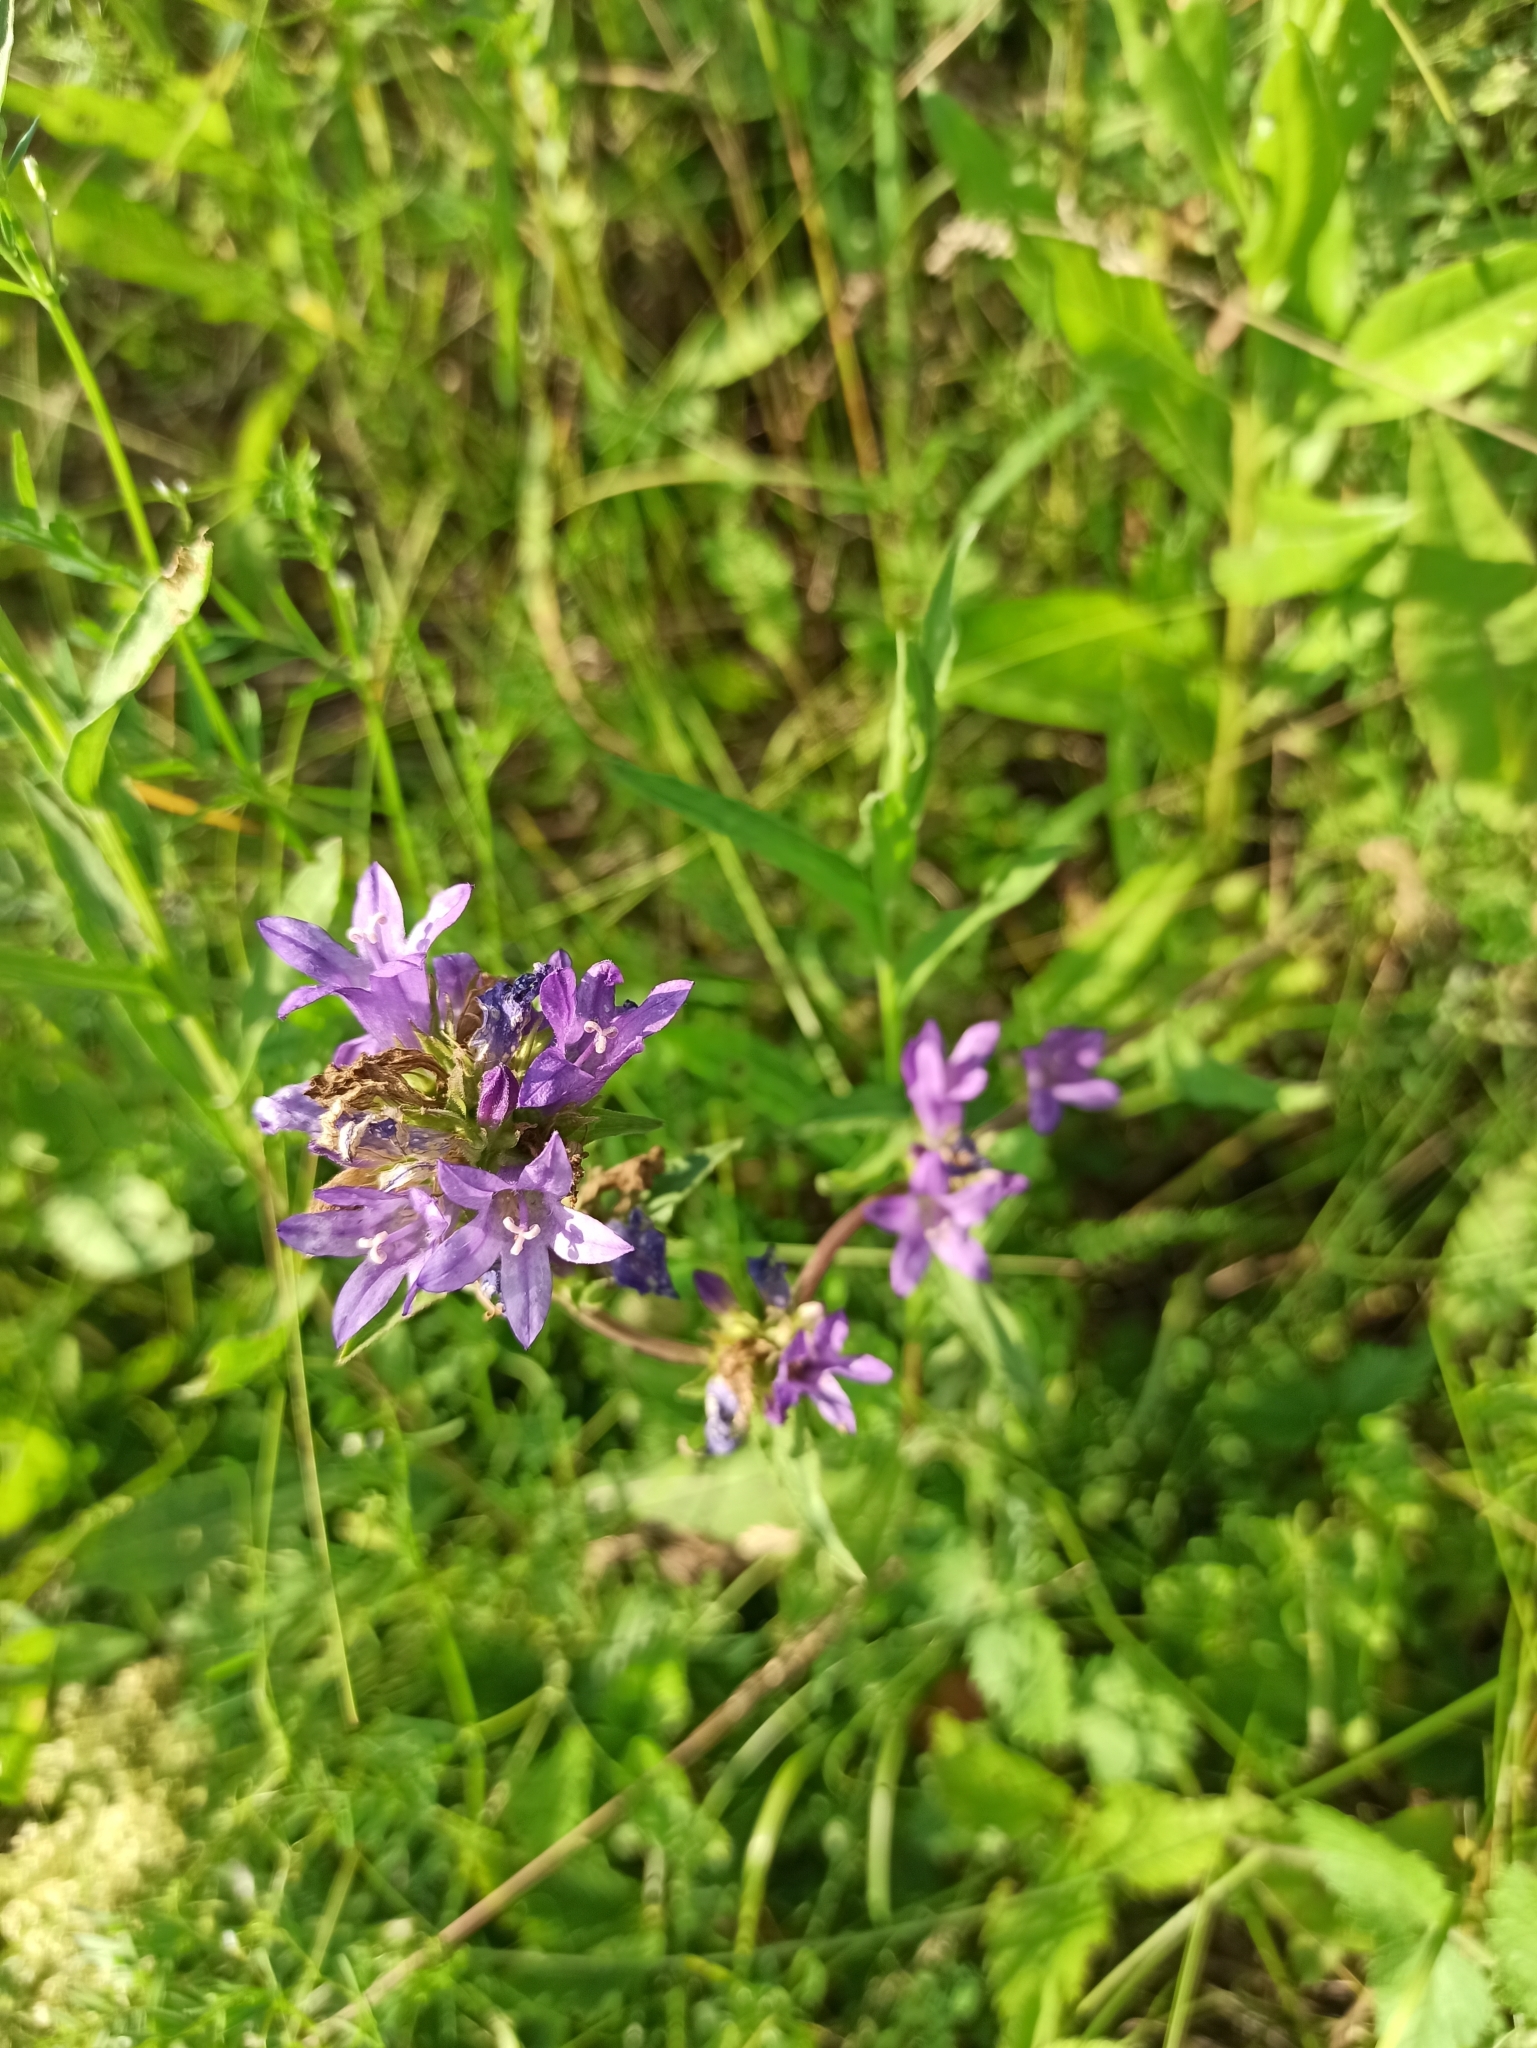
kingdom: Plantae
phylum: Tracheophyta
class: Magnoliopsida
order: Asterales
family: Campanulaceae
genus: Campanula
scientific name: Campanula glomerata
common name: Clustered bellflower
